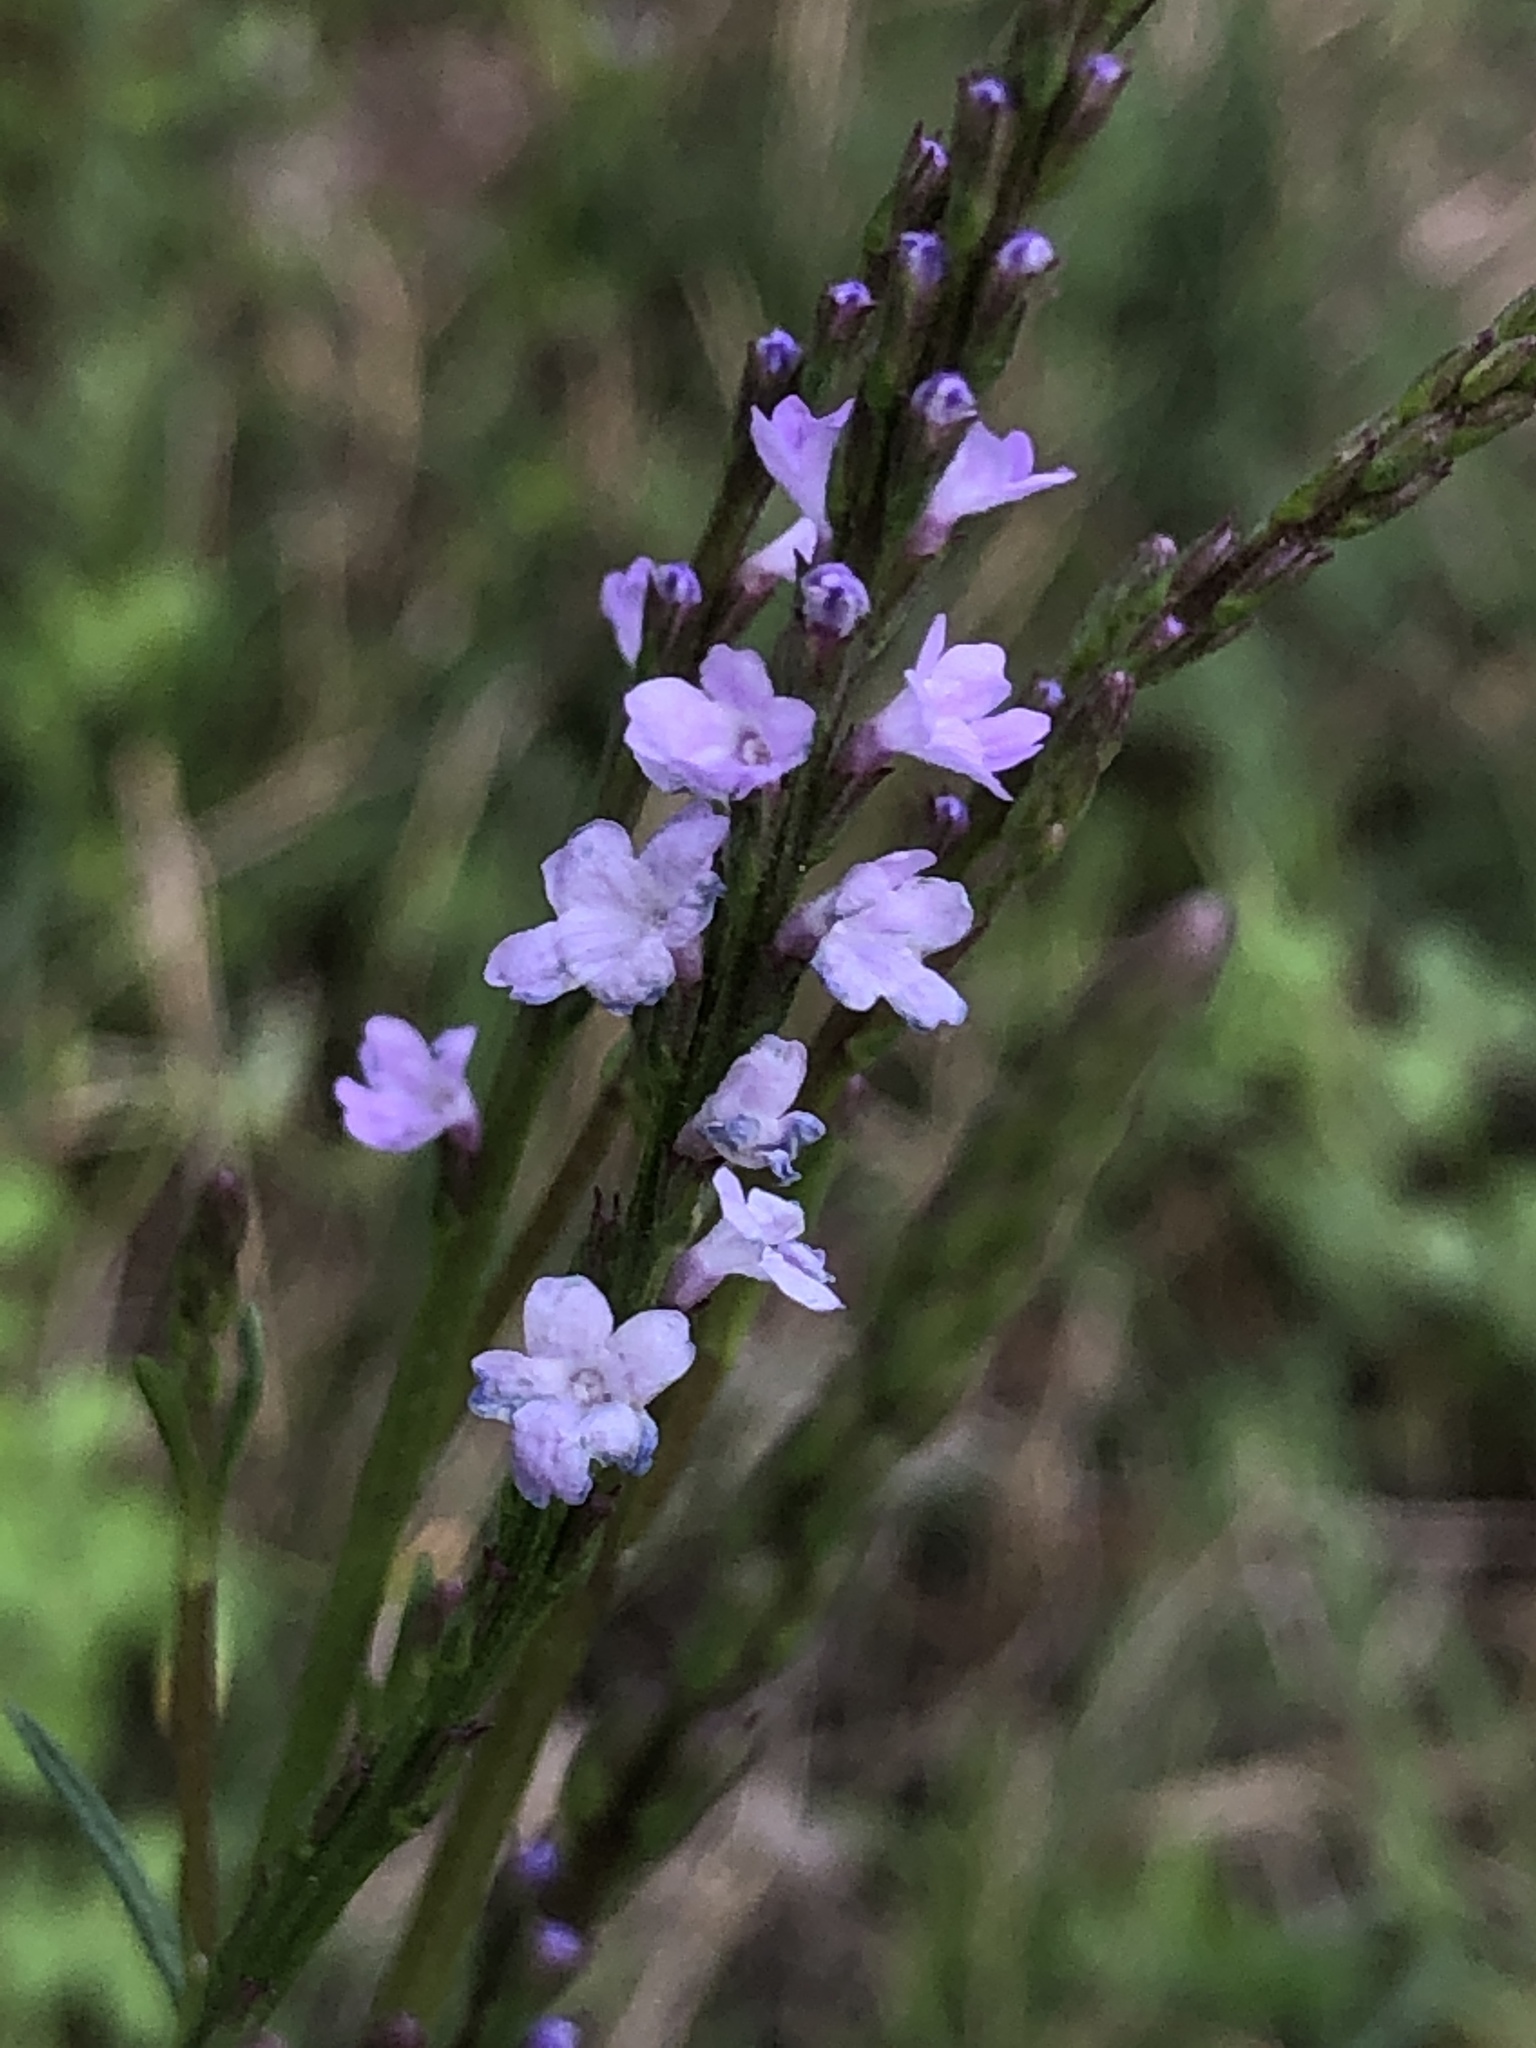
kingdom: Plantae
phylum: Tracheophyta
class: Magnoliopsida
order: Lamiales
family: Verbenaceae
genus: Verbena
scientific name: Verbena halei
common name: Texas vervain
